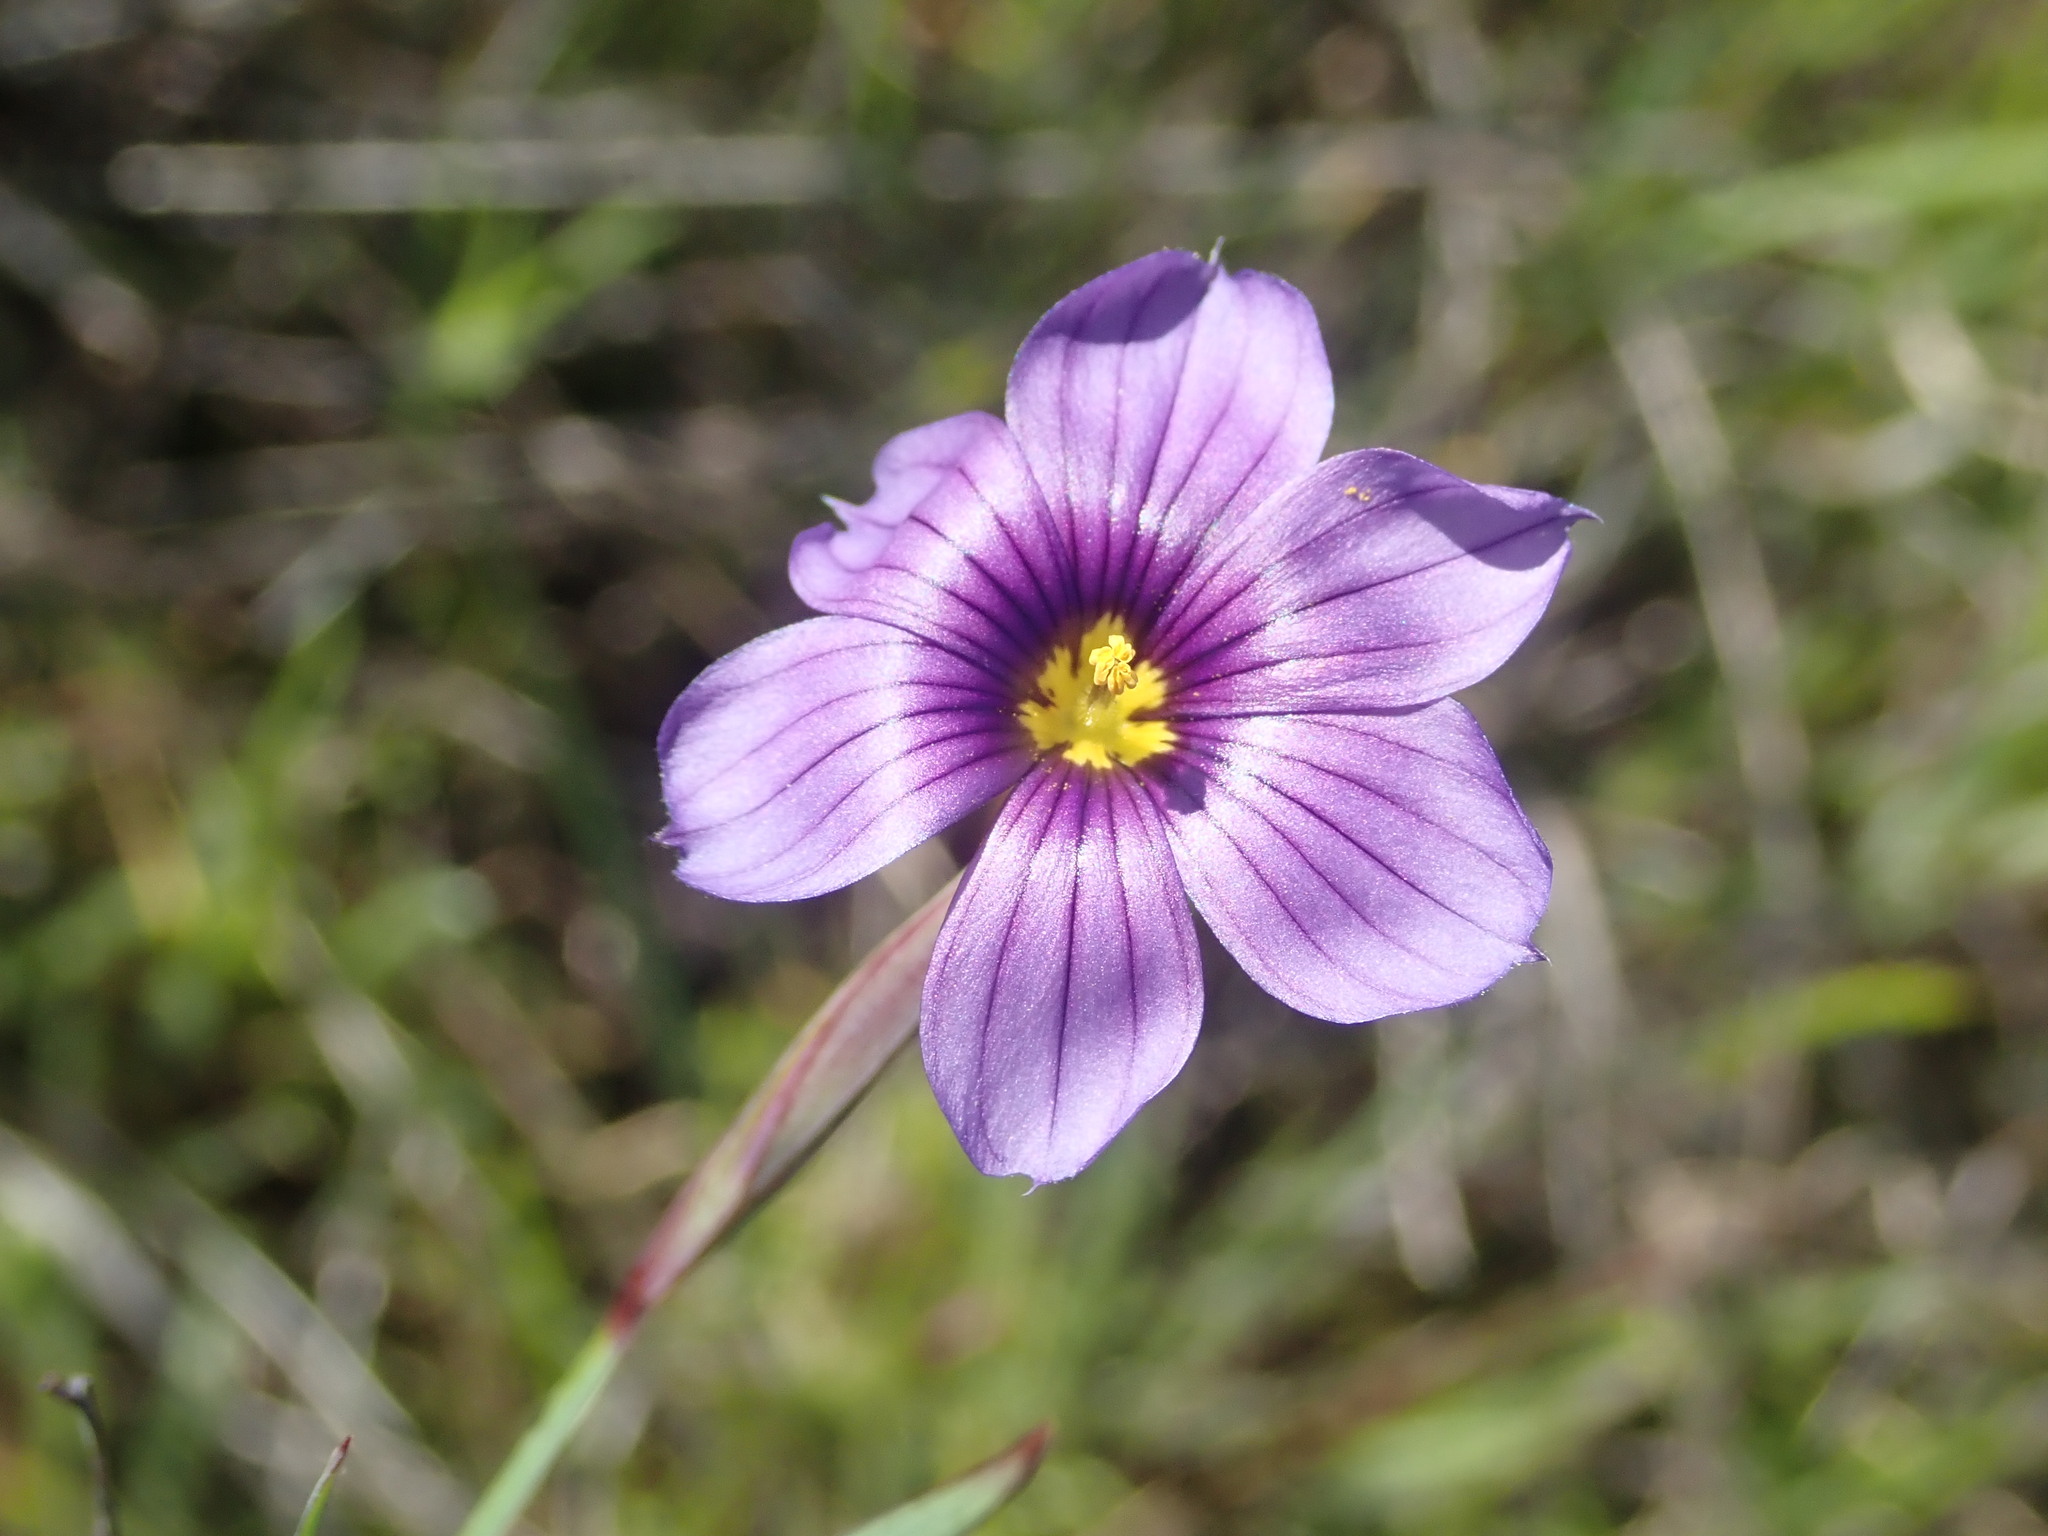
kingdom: Plantae
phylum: Tracheophyta
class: Liliopsida
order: Asparagales
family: Iridaceae
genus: Sisyrinchium
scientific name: Sisyrinchium bellum
